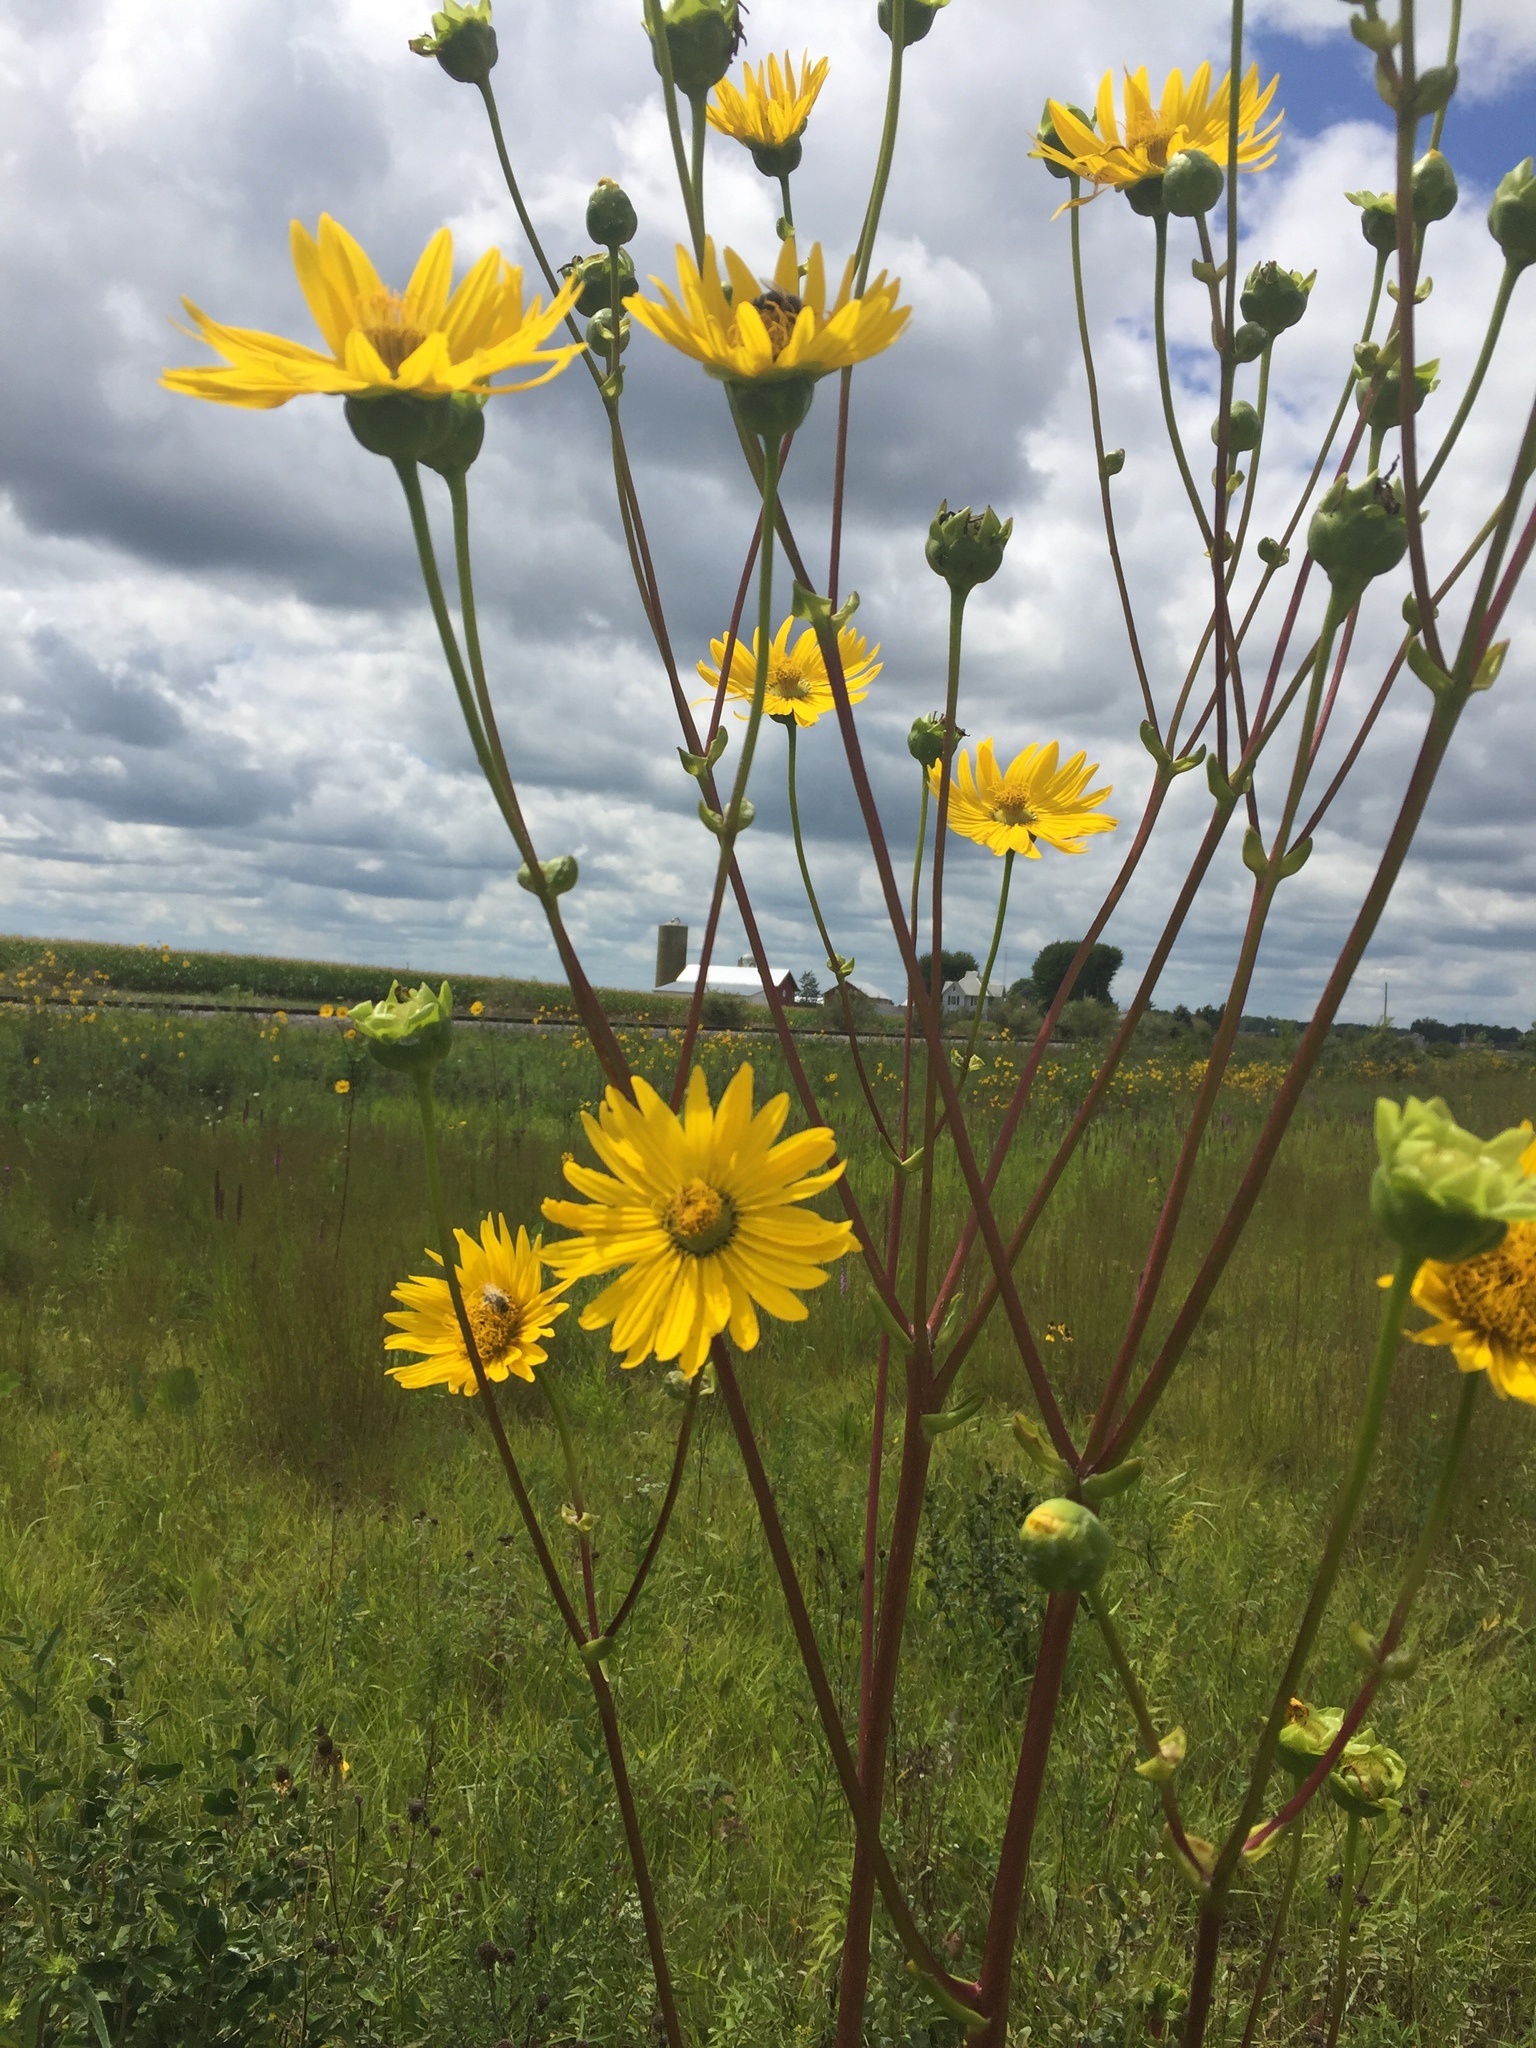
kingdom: Plantae
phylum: Tracheophyta
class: Magnoliopsida
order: Asterales
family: Asteraceae
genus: Silphium
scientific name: Silphium terebinthinaceum
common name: Basal-leaf rosinweed
